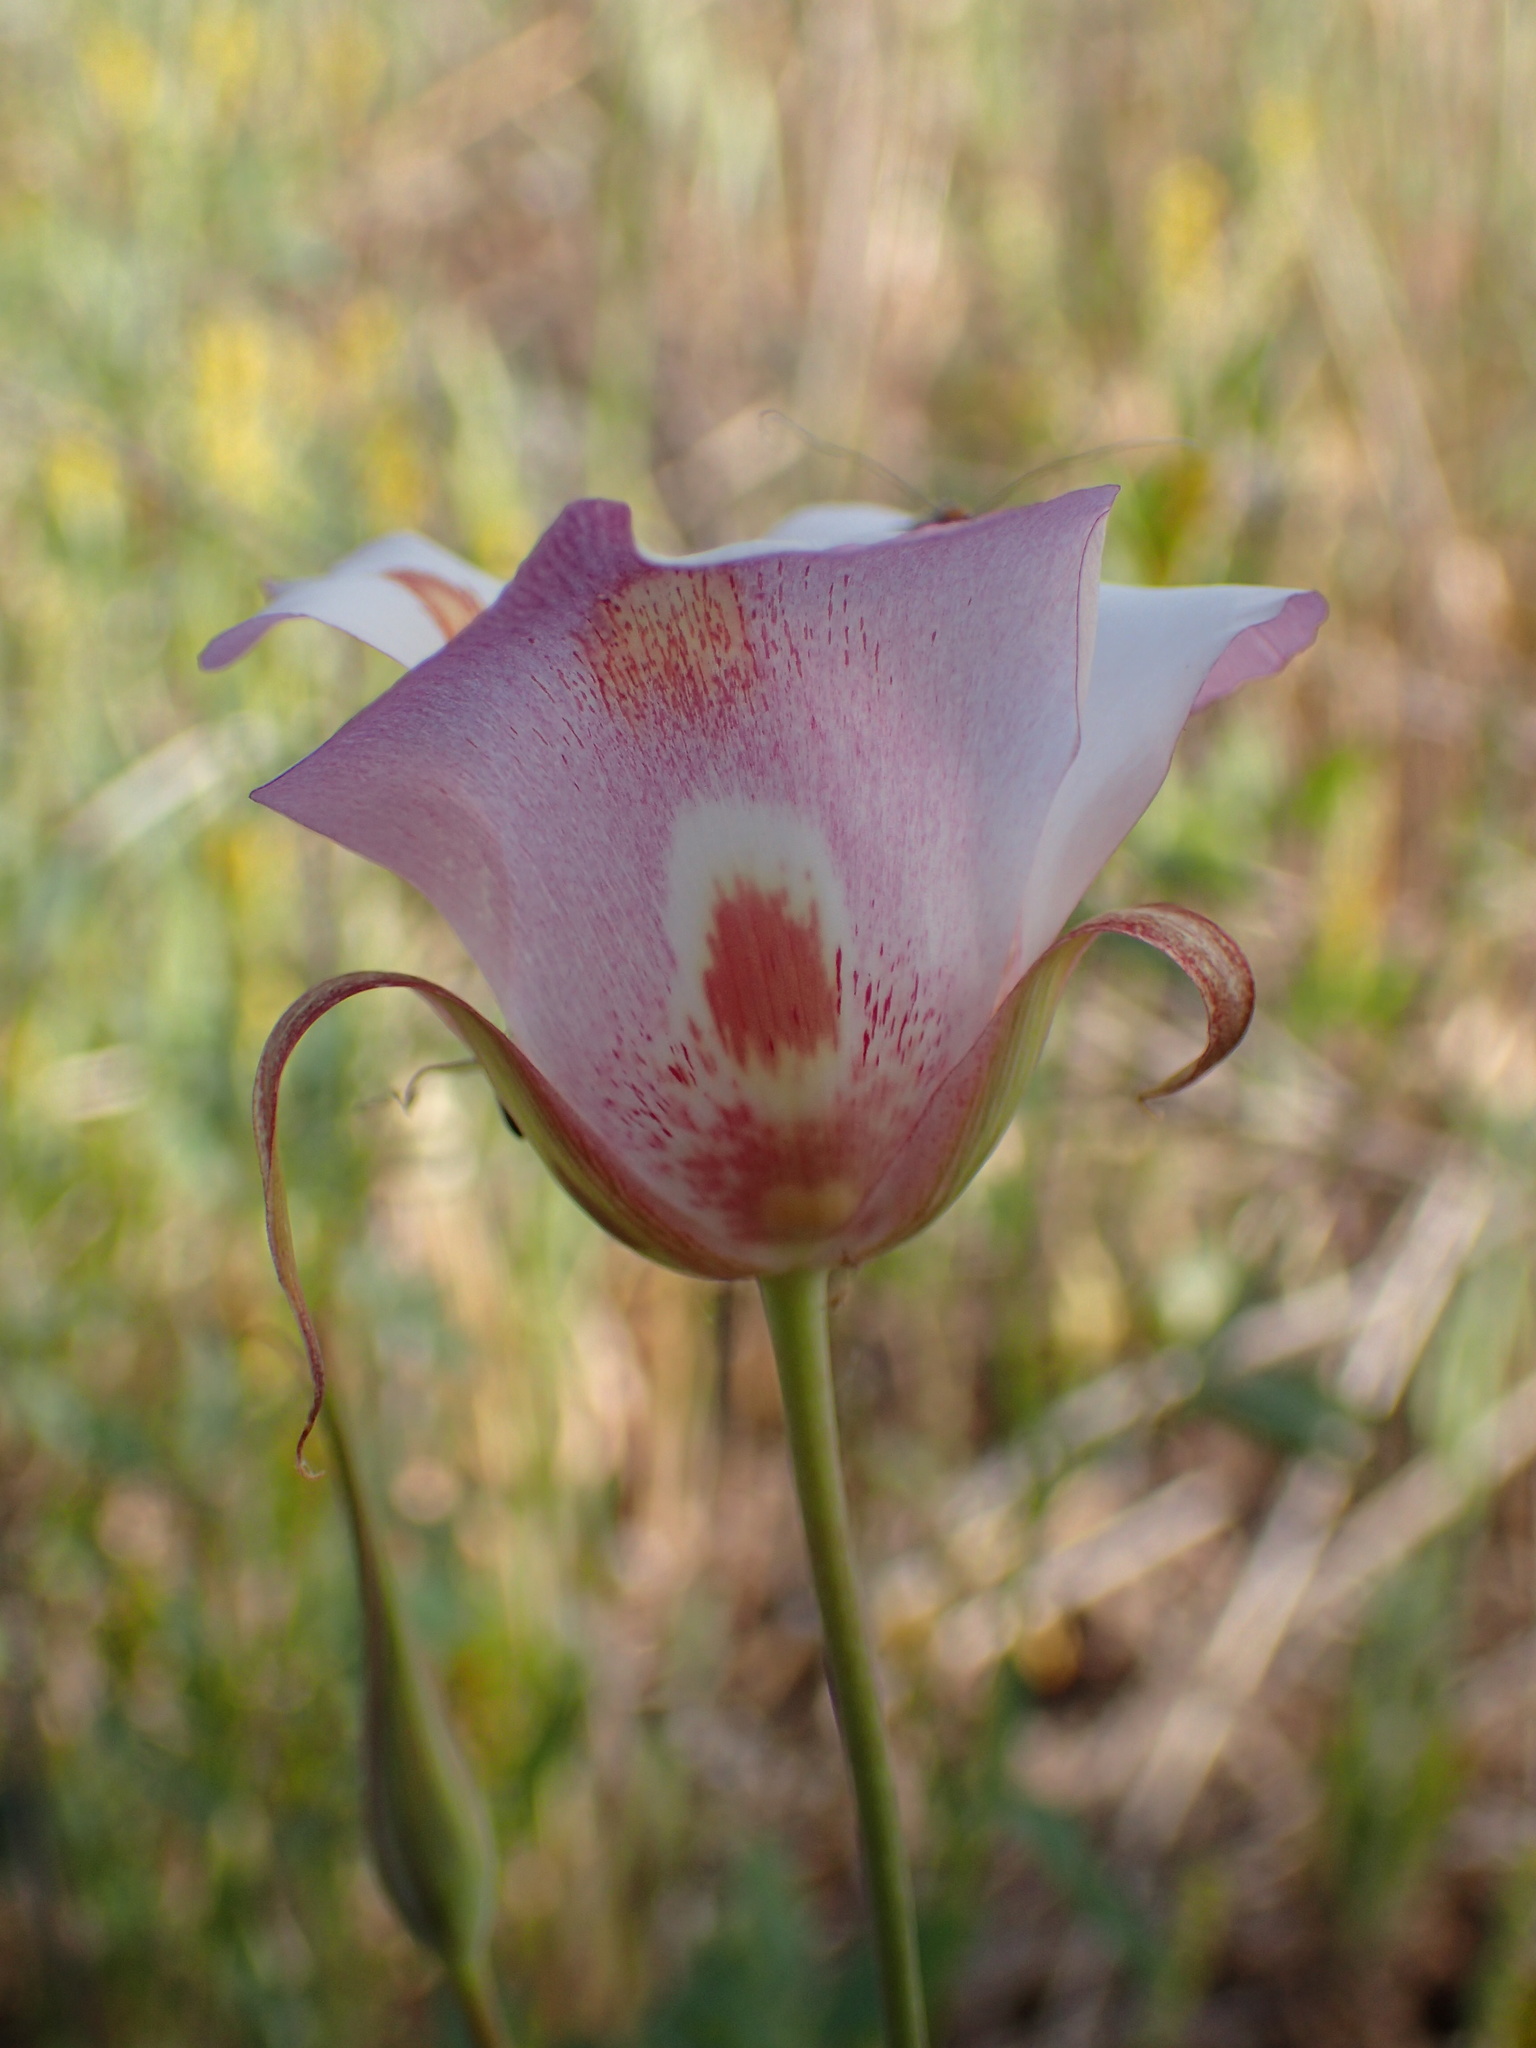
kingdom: Plantae
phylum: Tracheophyta
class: Liliopsida
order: Liliales
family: Liliaceae
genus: Calochortus
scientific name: Calochortus venustus
